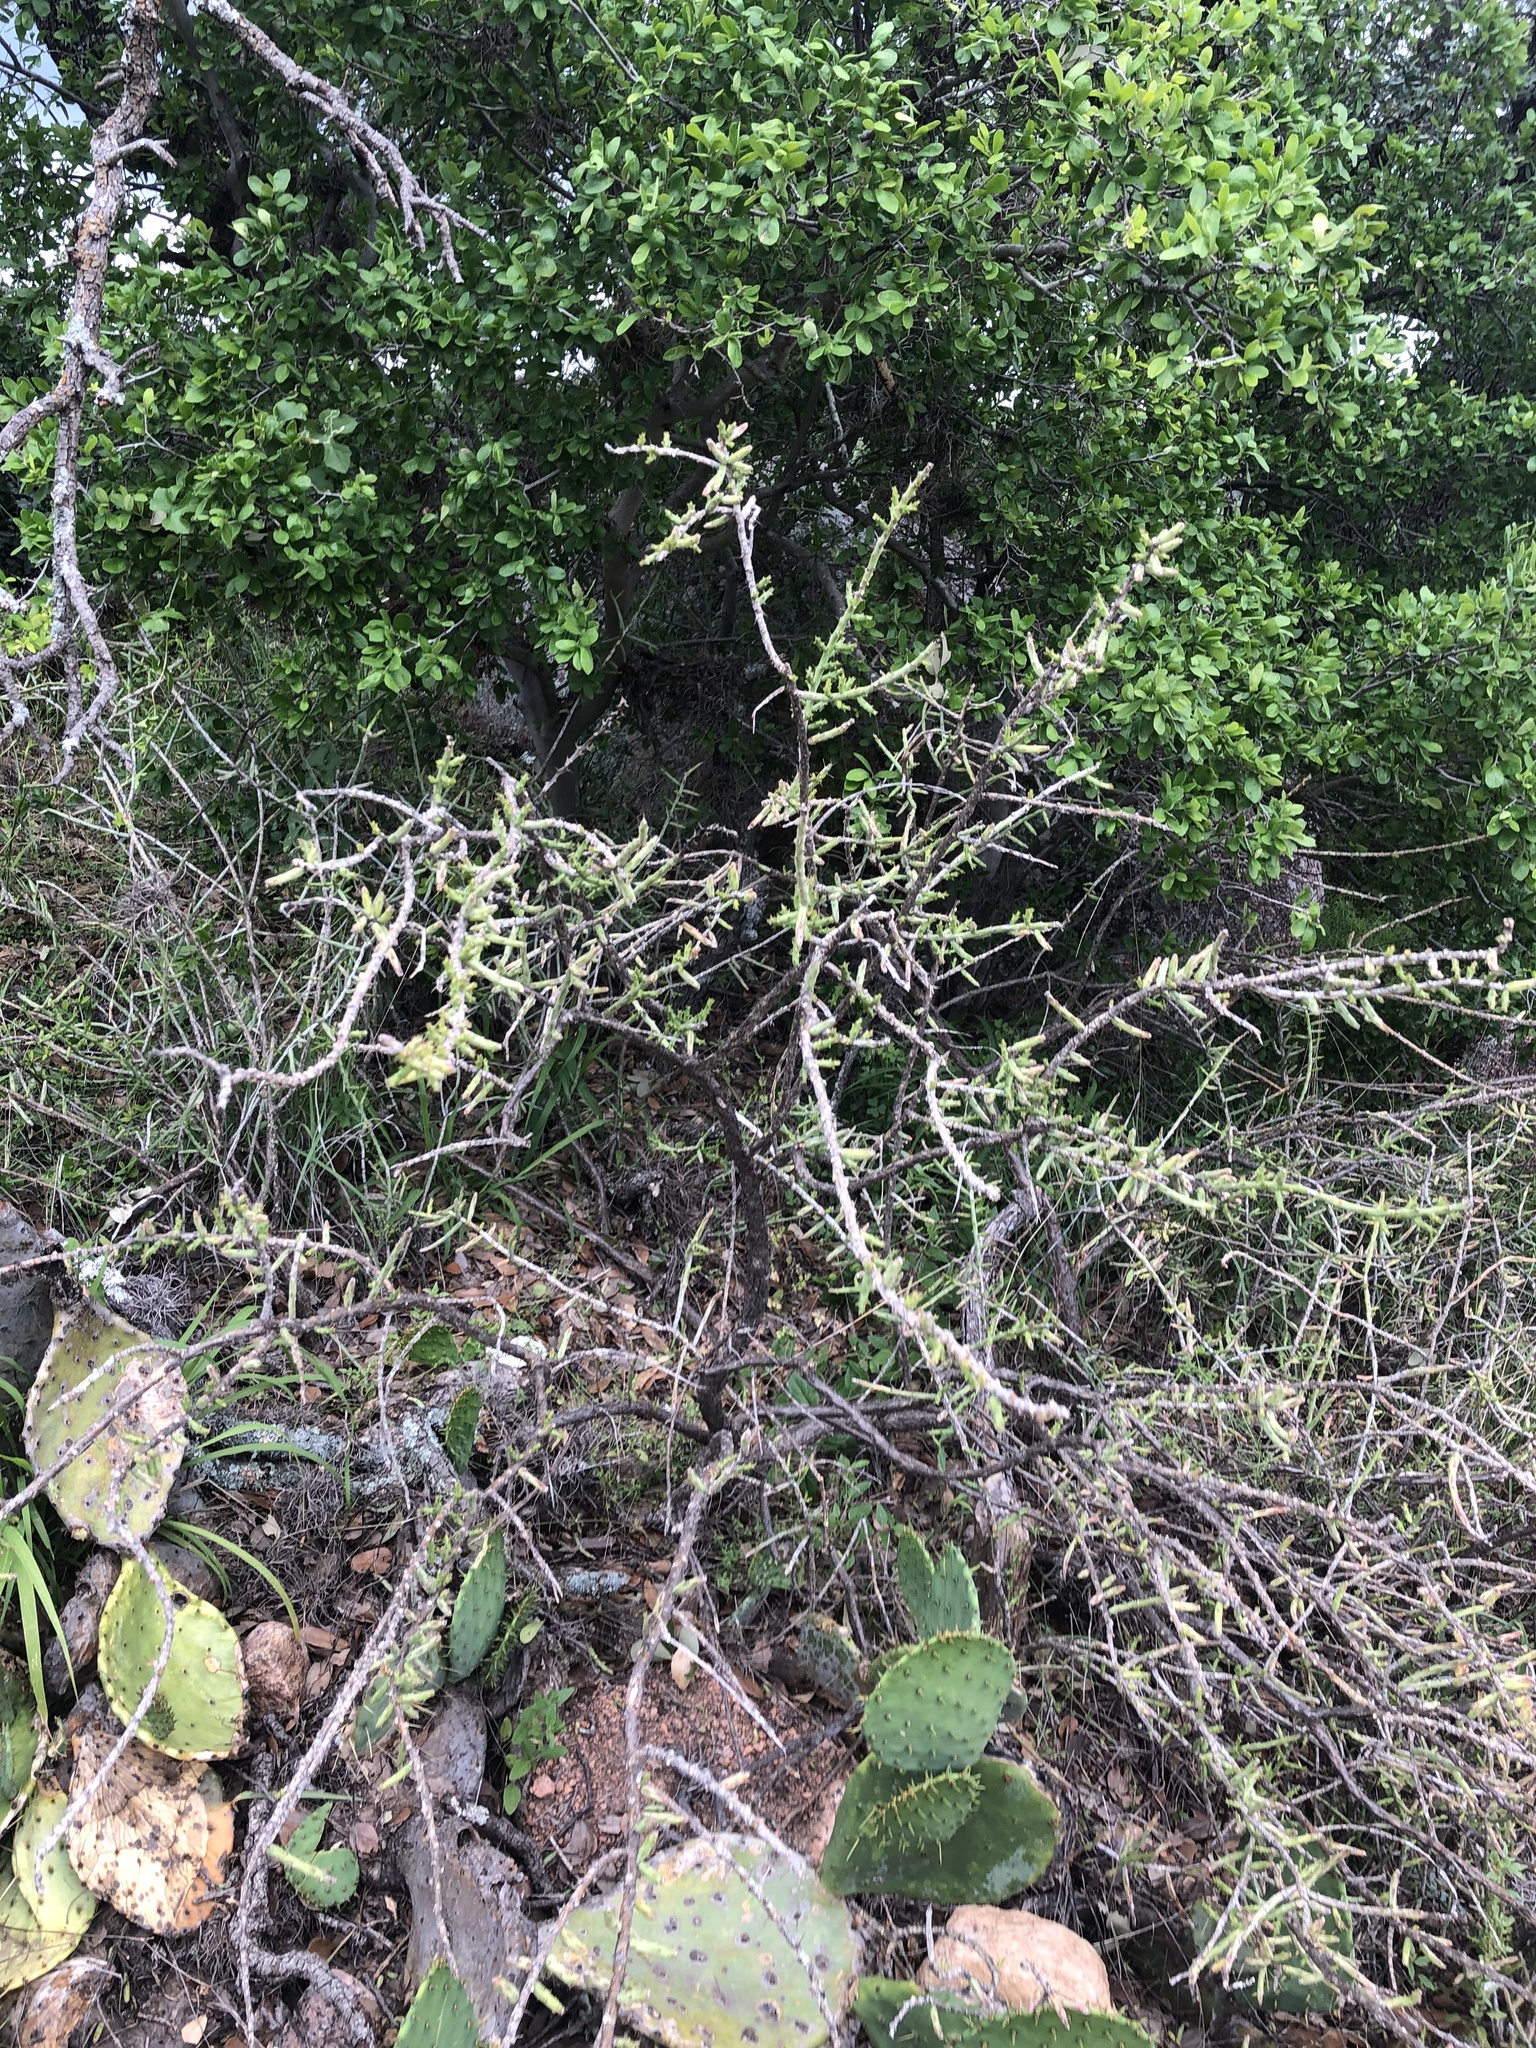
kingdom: Plantae
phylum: Tracheophyta
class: Magnoliopsida
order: Caryophyllales
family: Cactaceae
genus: Cylindropuntia
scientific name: Cylindropuntia leptocaulis
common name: Christmas cactus
